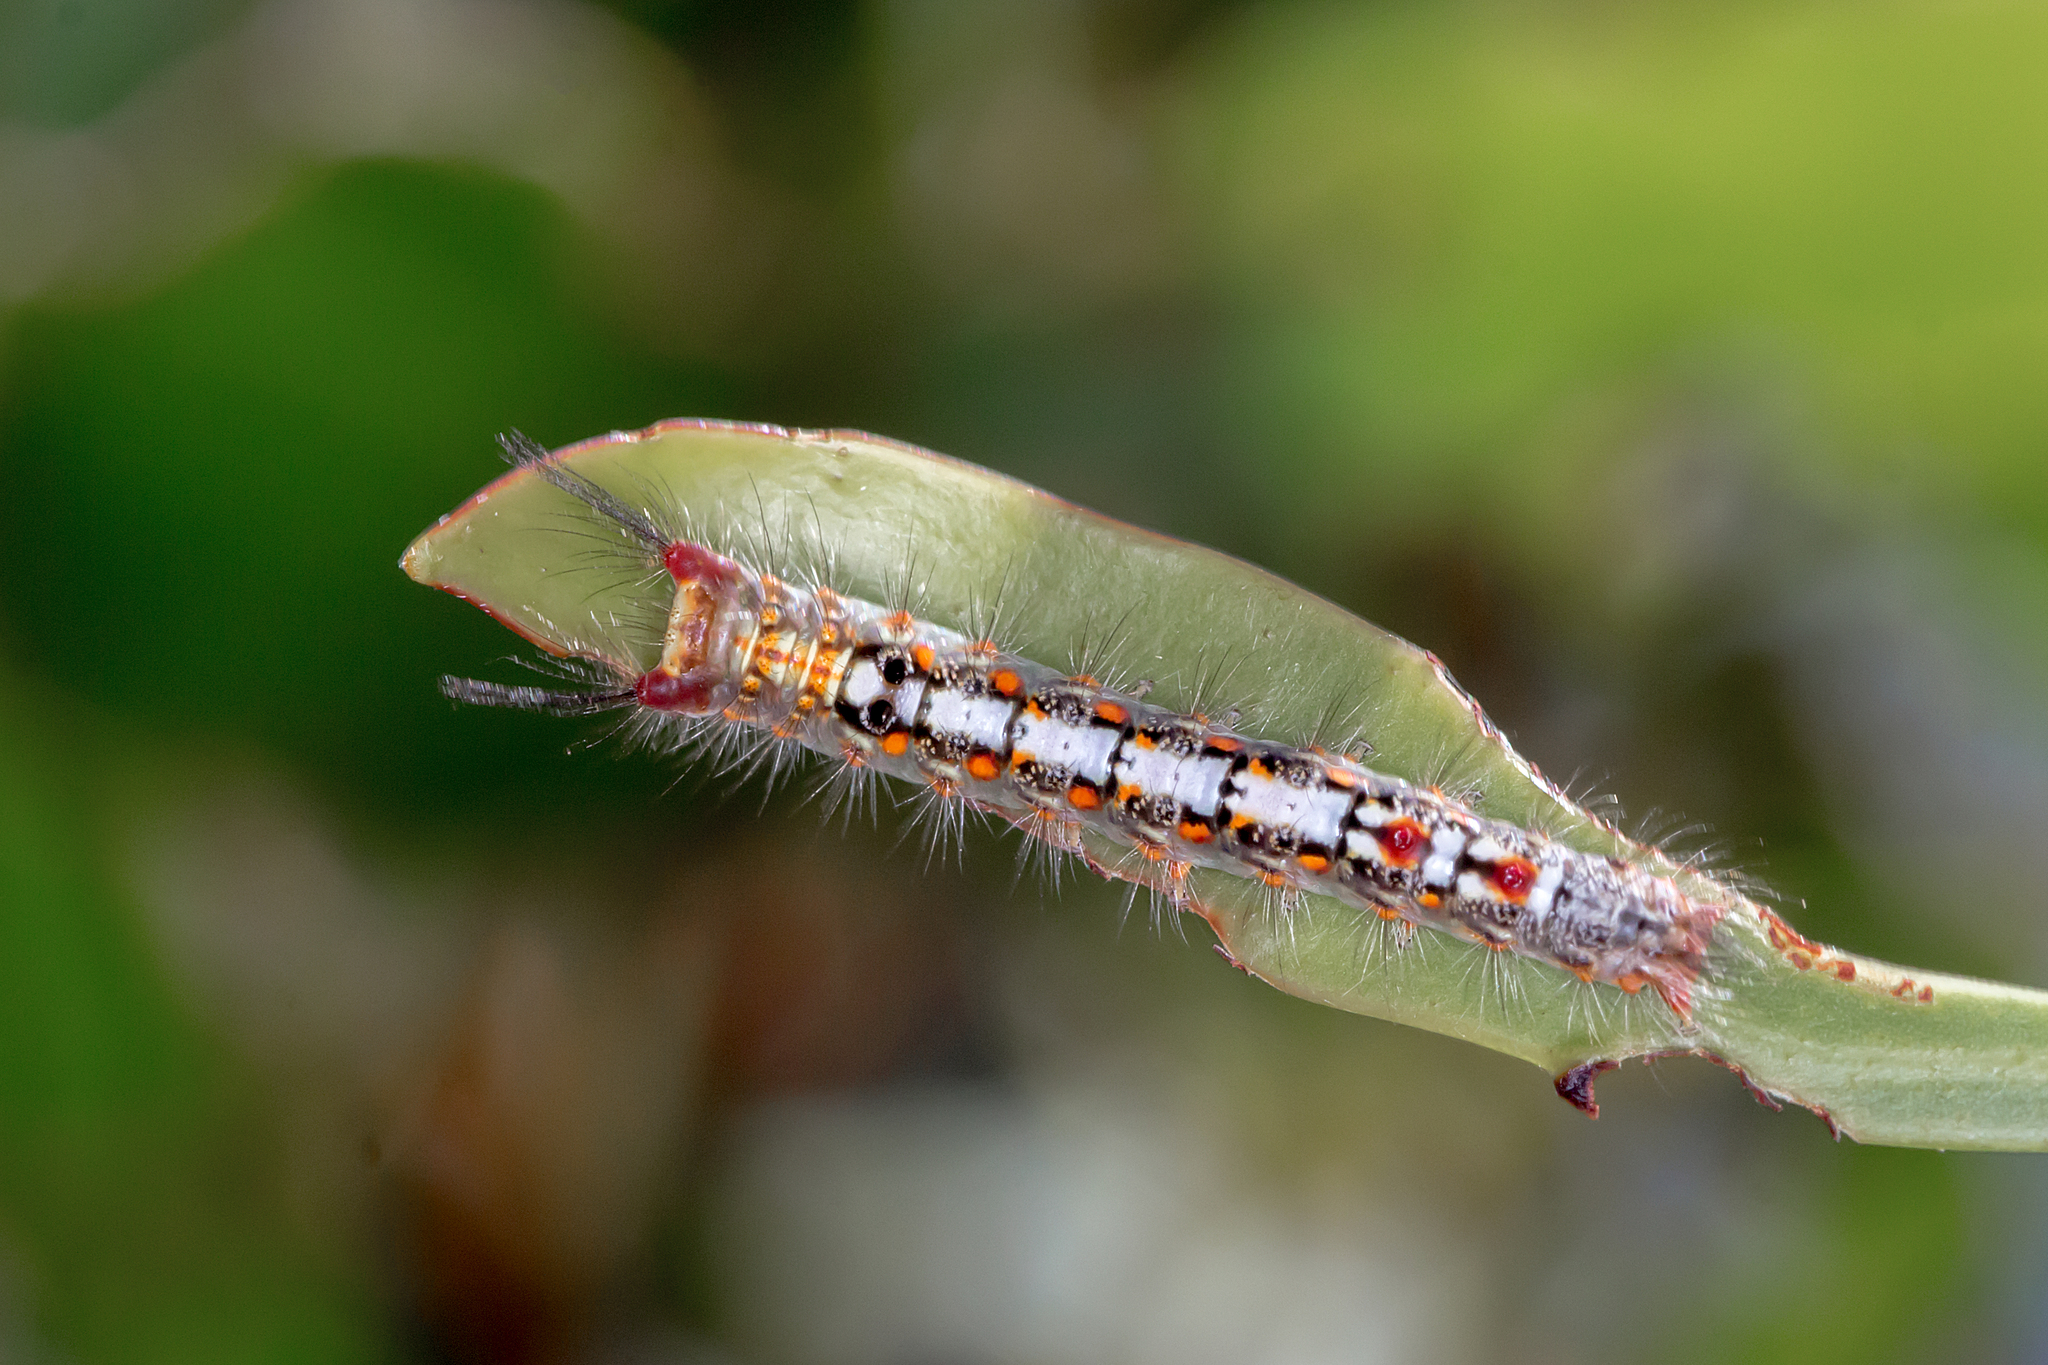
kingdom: Animalia
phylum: Arthropoda
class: Insecta
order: Lepidoptera
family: Erebidae
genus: Acyphas
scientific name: Acyphas semiochrea
